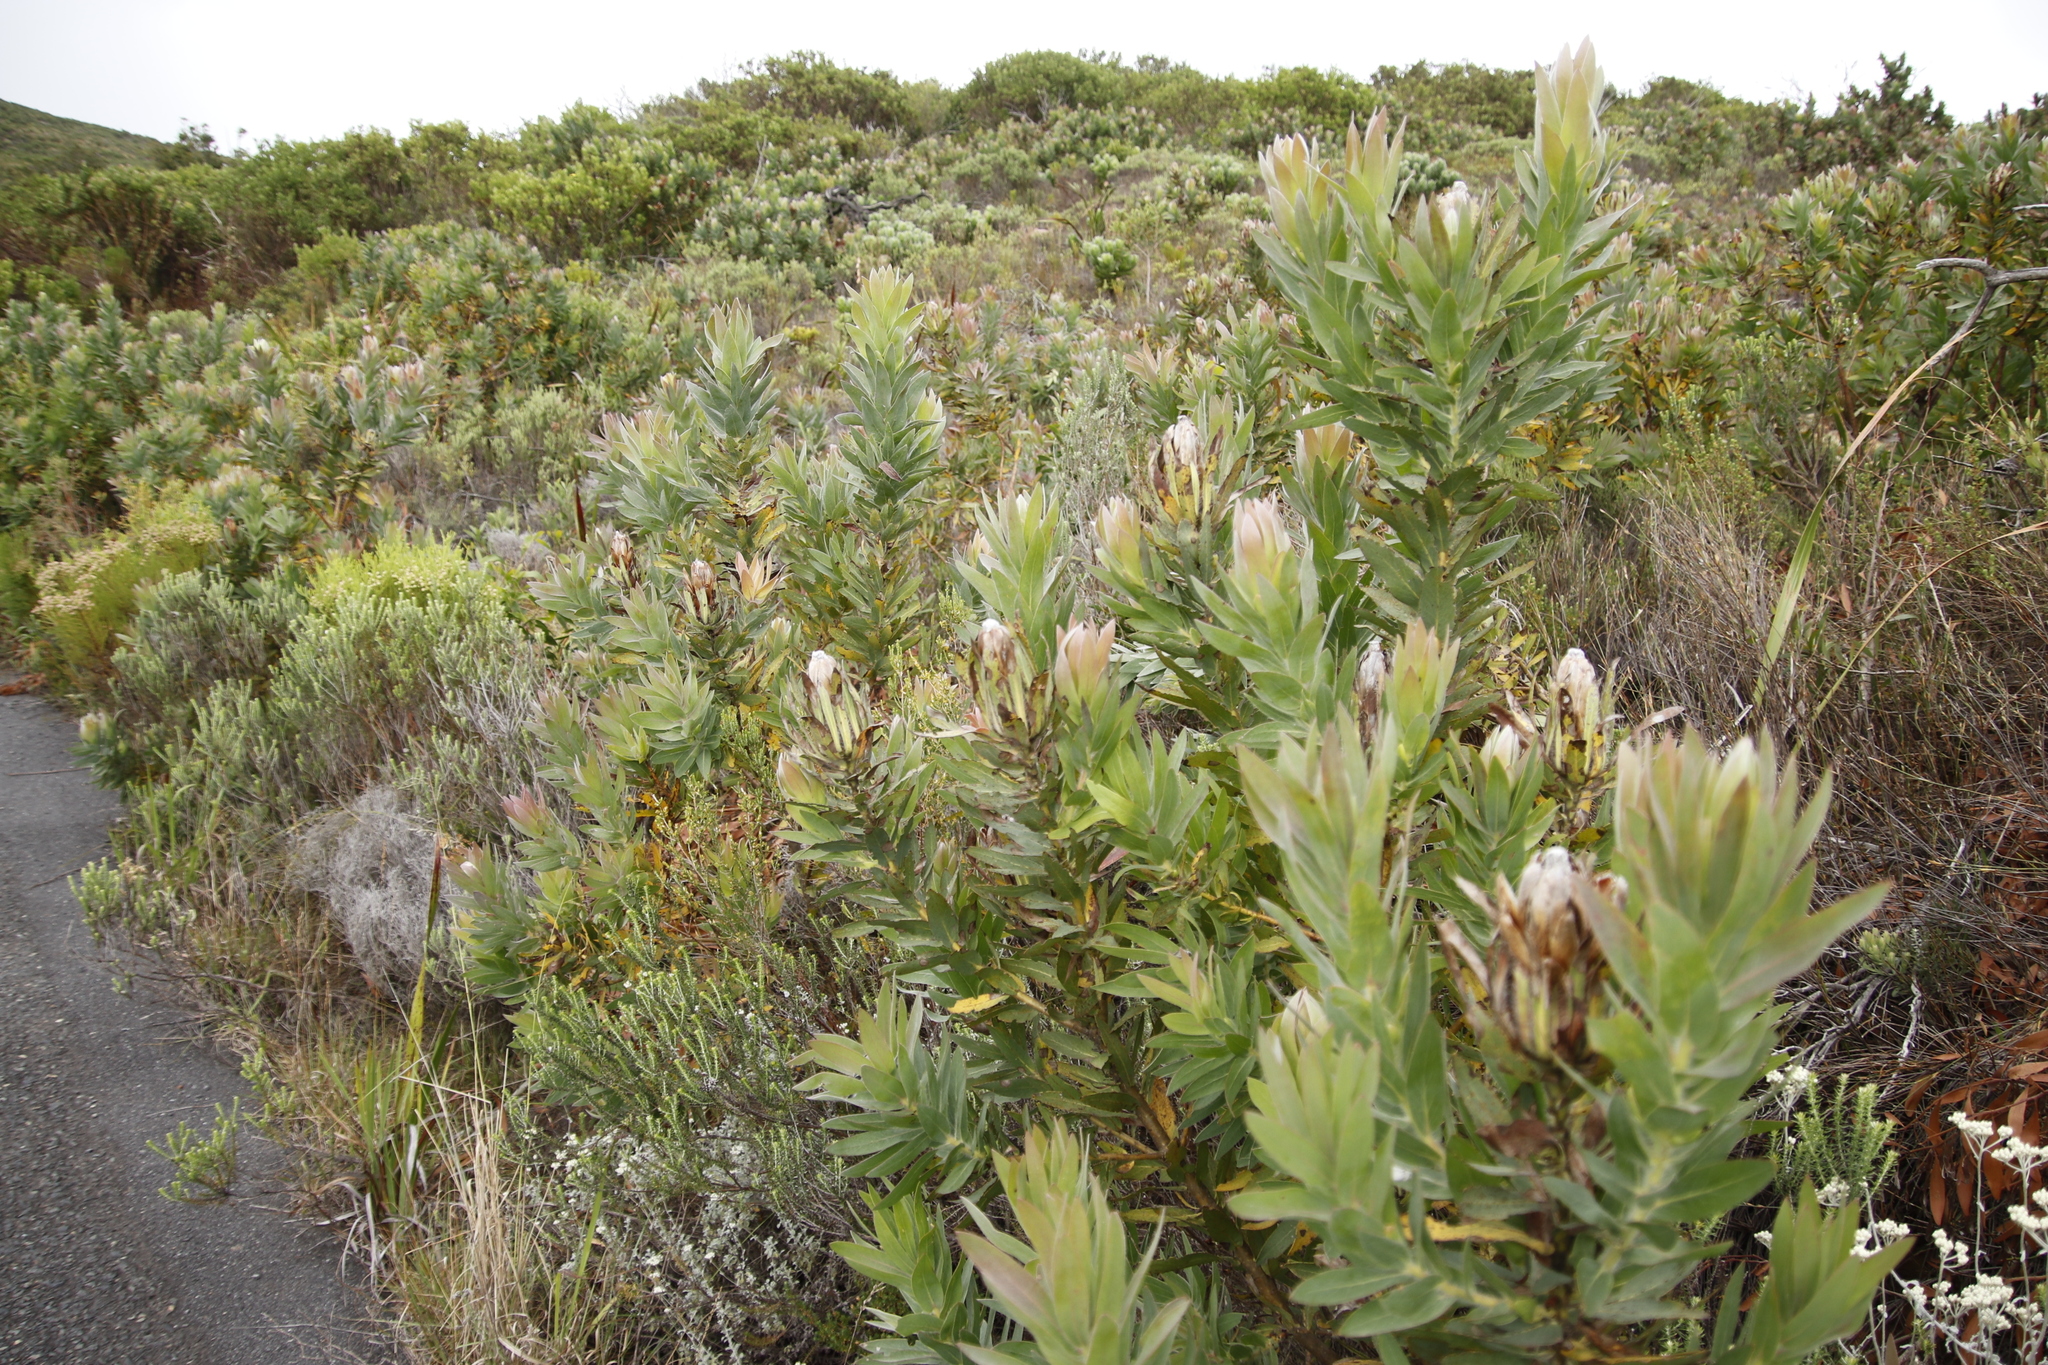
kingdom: Plantae
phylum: Tracheophyta
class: Magnoliopsida
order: Proteales
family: Proteaceae
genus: Protea
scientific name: Protea coronata
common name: Green sugarbush
